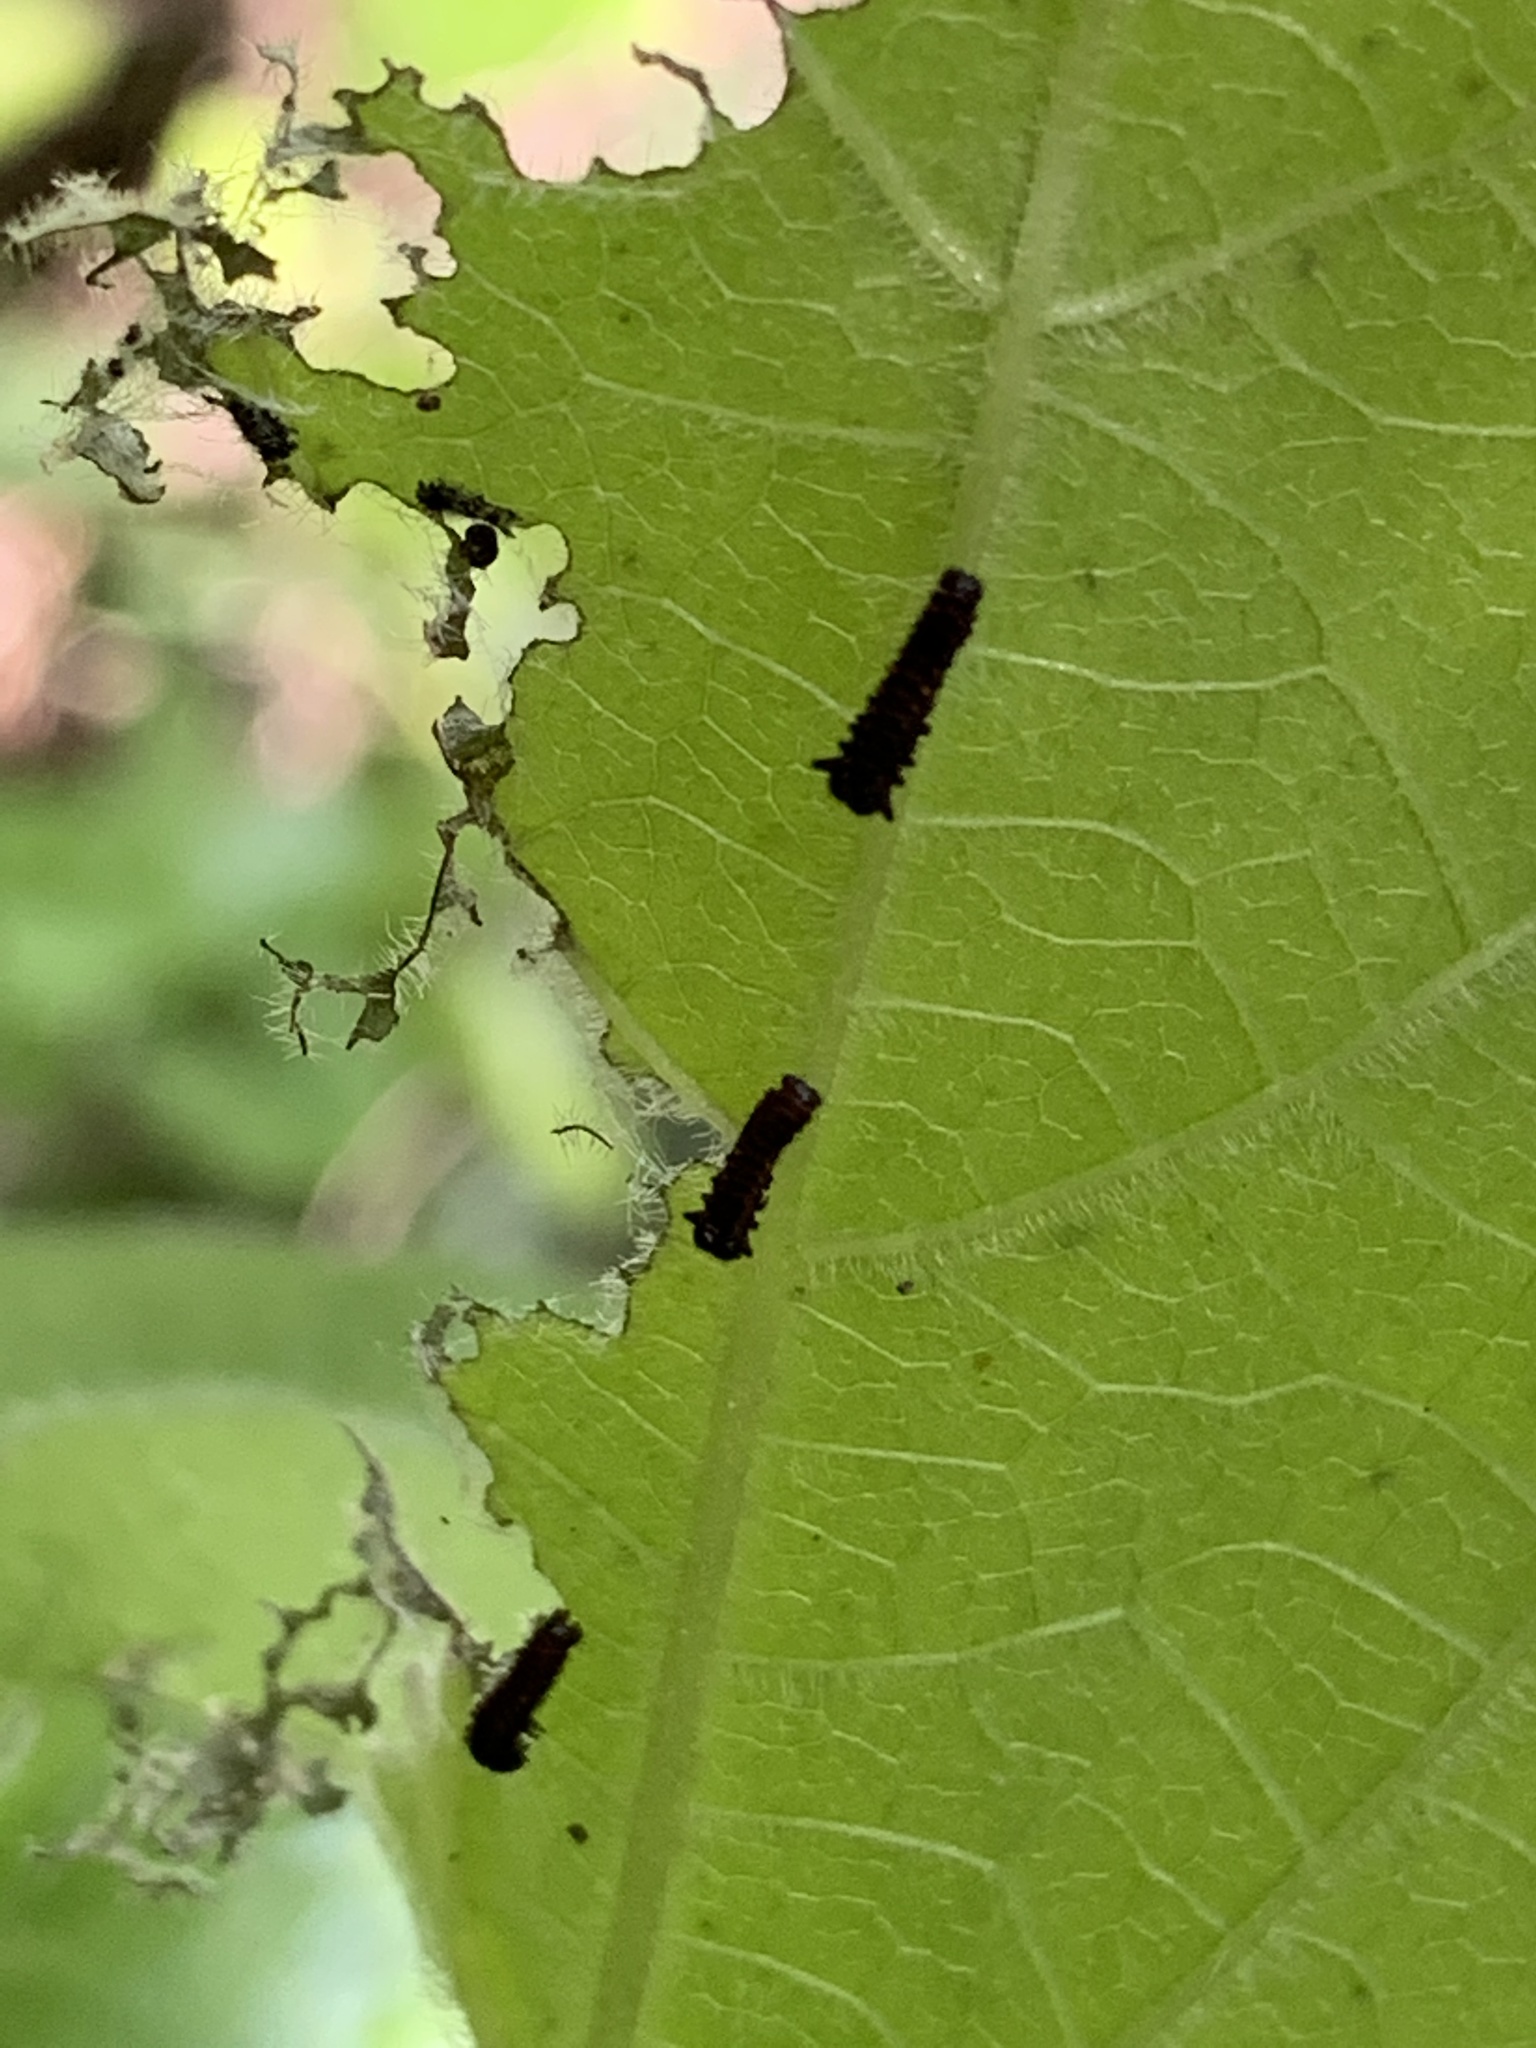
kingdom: Animalia
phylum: Arthropoda
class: Insecta
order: Lepidoptera
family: Papilionidae
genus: Battus
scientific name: Battus philenor
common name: Pipevine swallowtail
